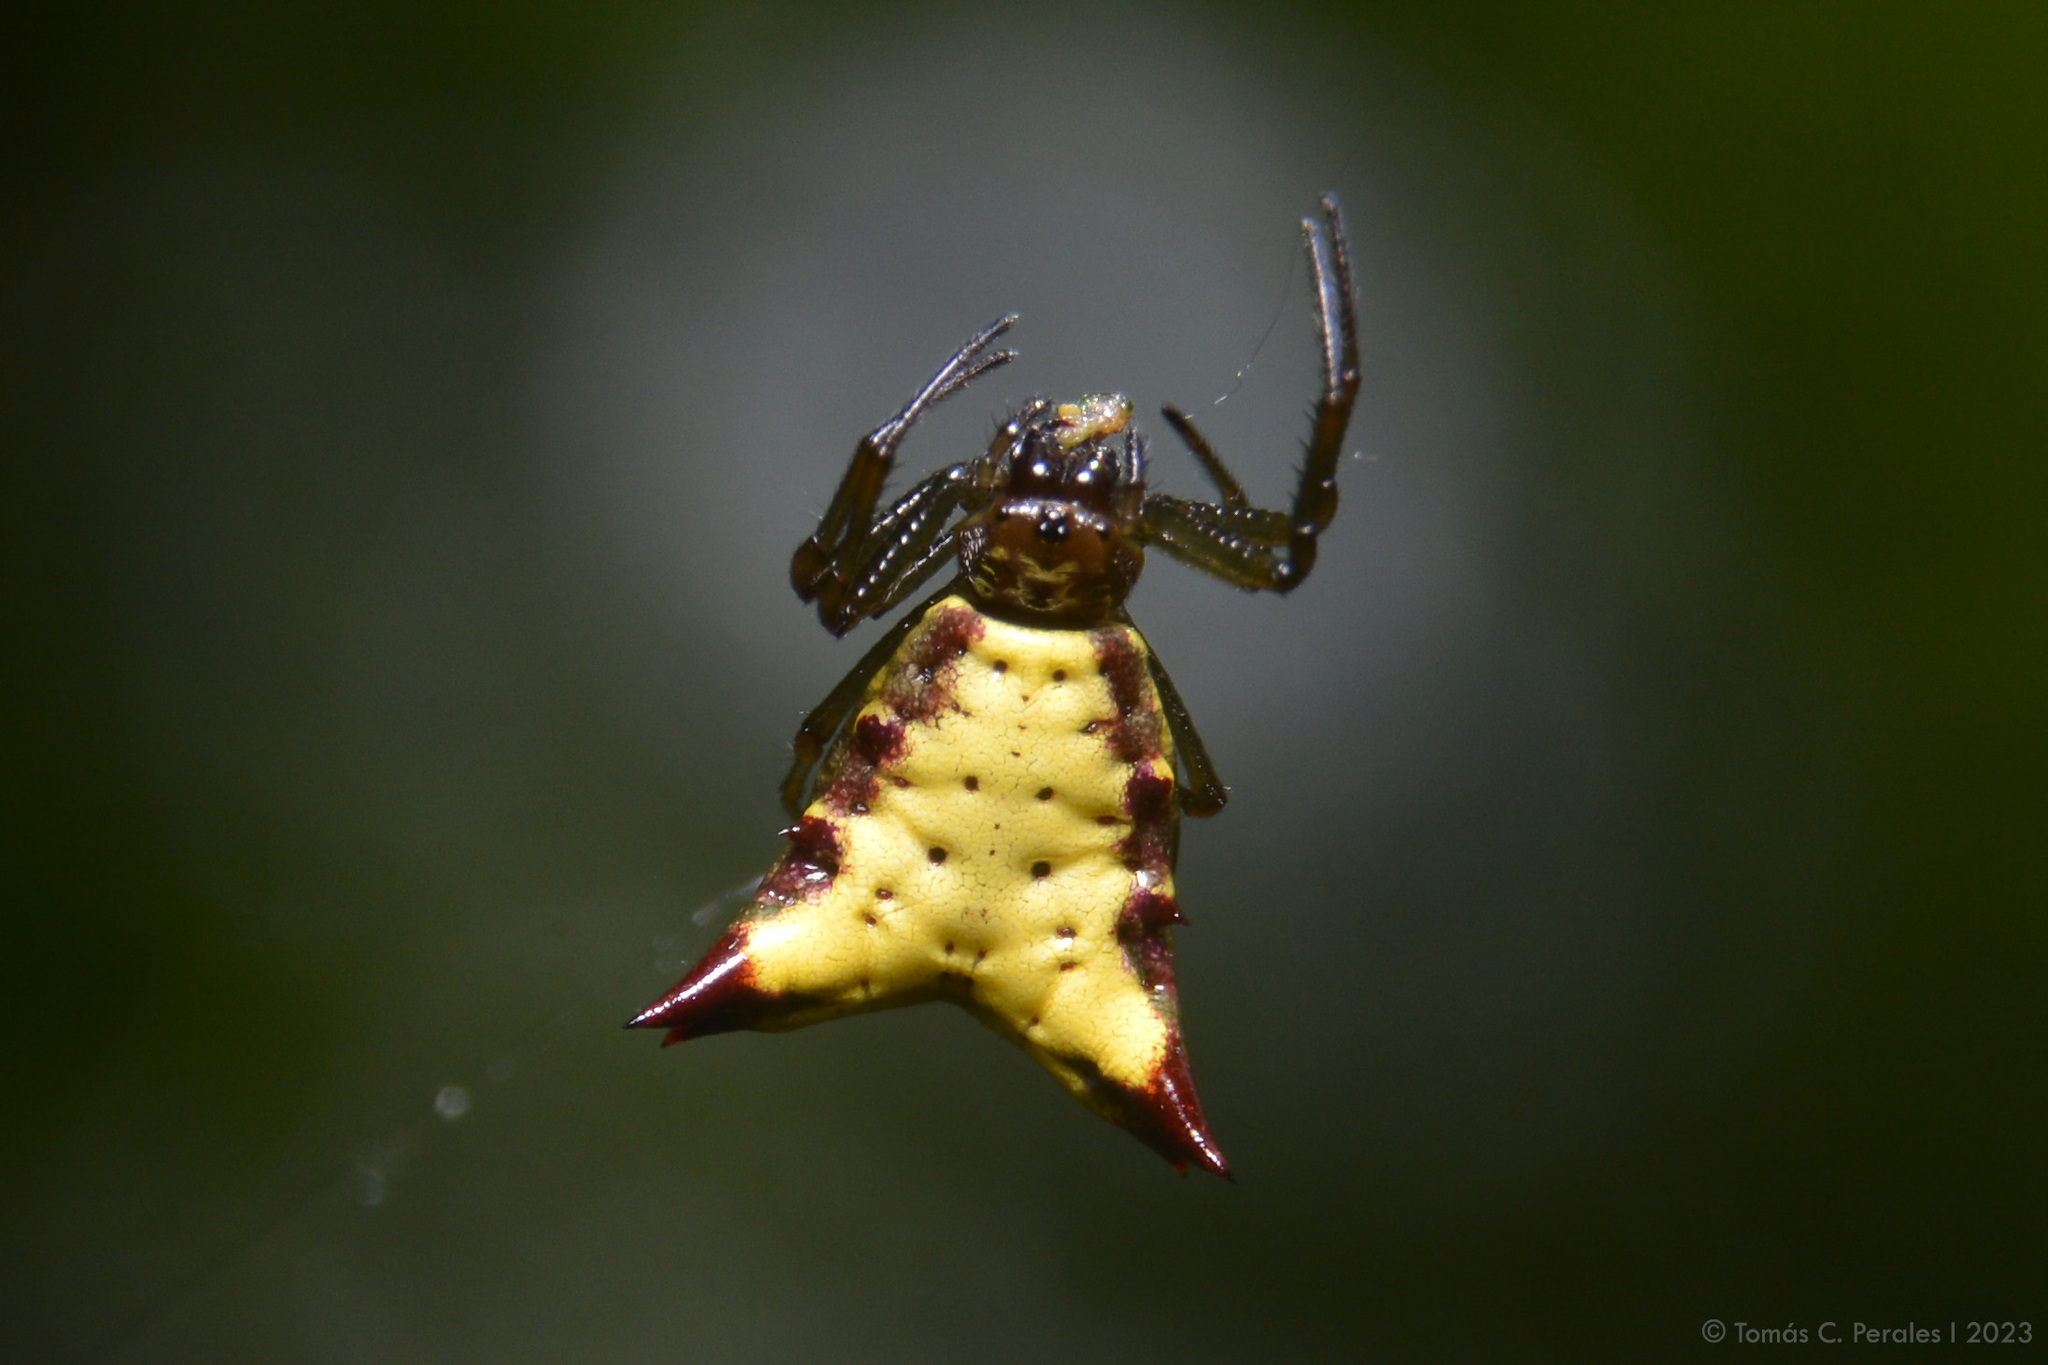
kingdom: Animalia
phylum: Arthropoda
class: Arachnida
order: Araneae
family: Araneidae
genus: Micrathena
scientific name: Micrathena furva
